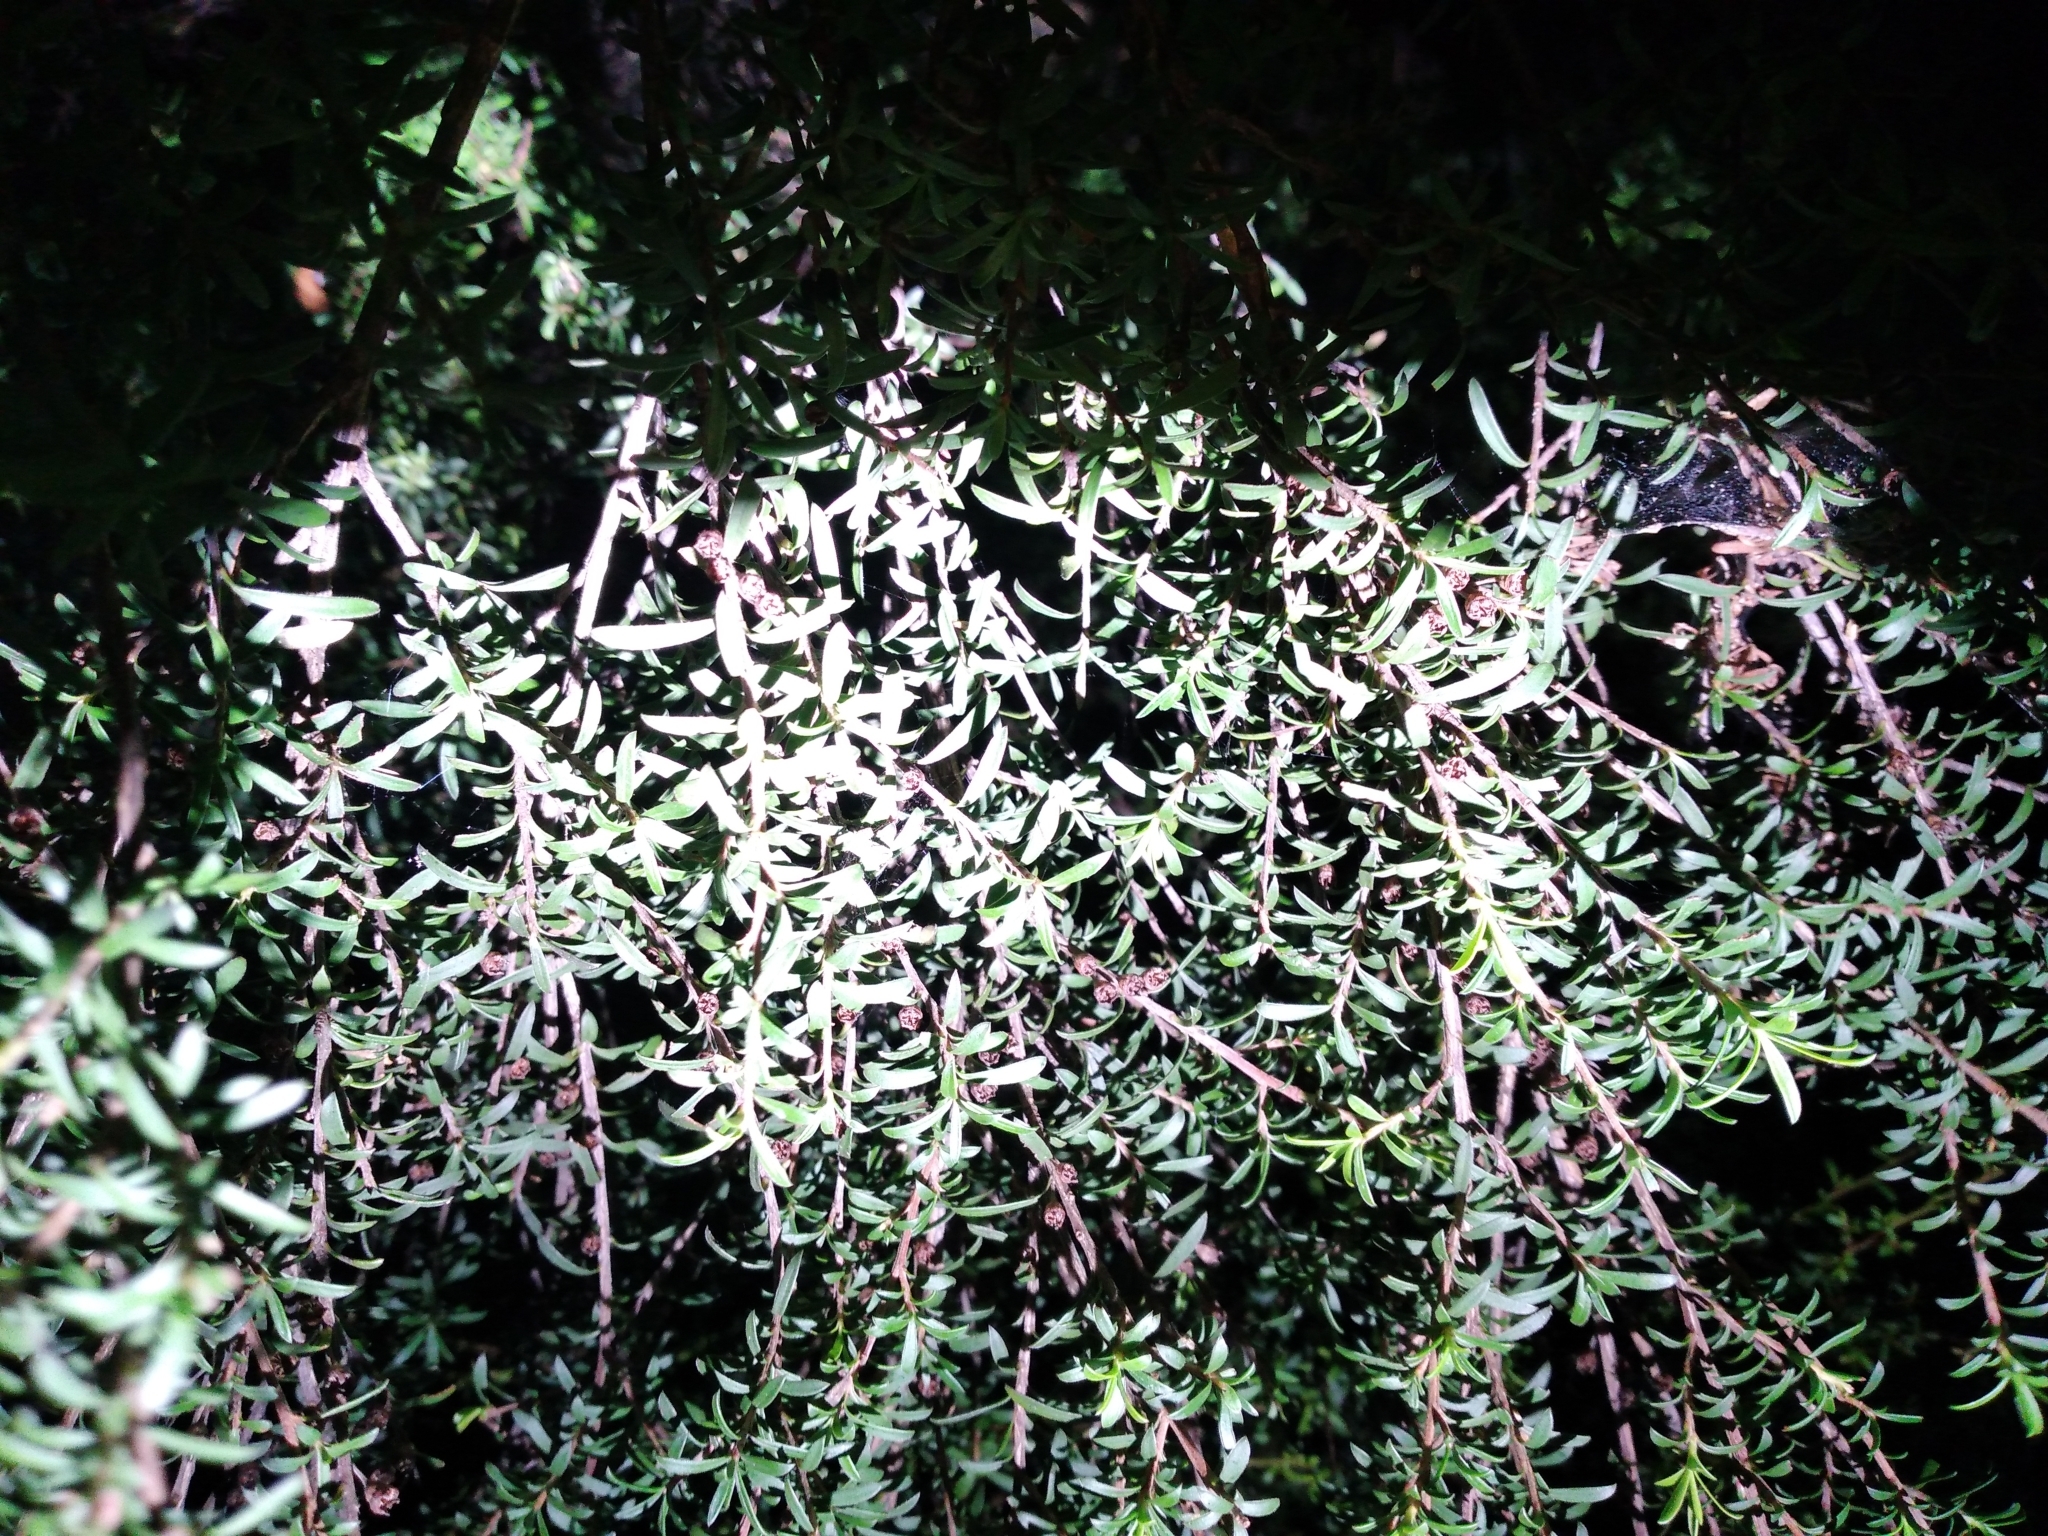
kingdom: Plantae
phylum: Tracheophyta
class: Magnoliopsida
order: Myrtales
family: Myrtaceae
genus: Kunzea
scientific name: Kunzea robusta
